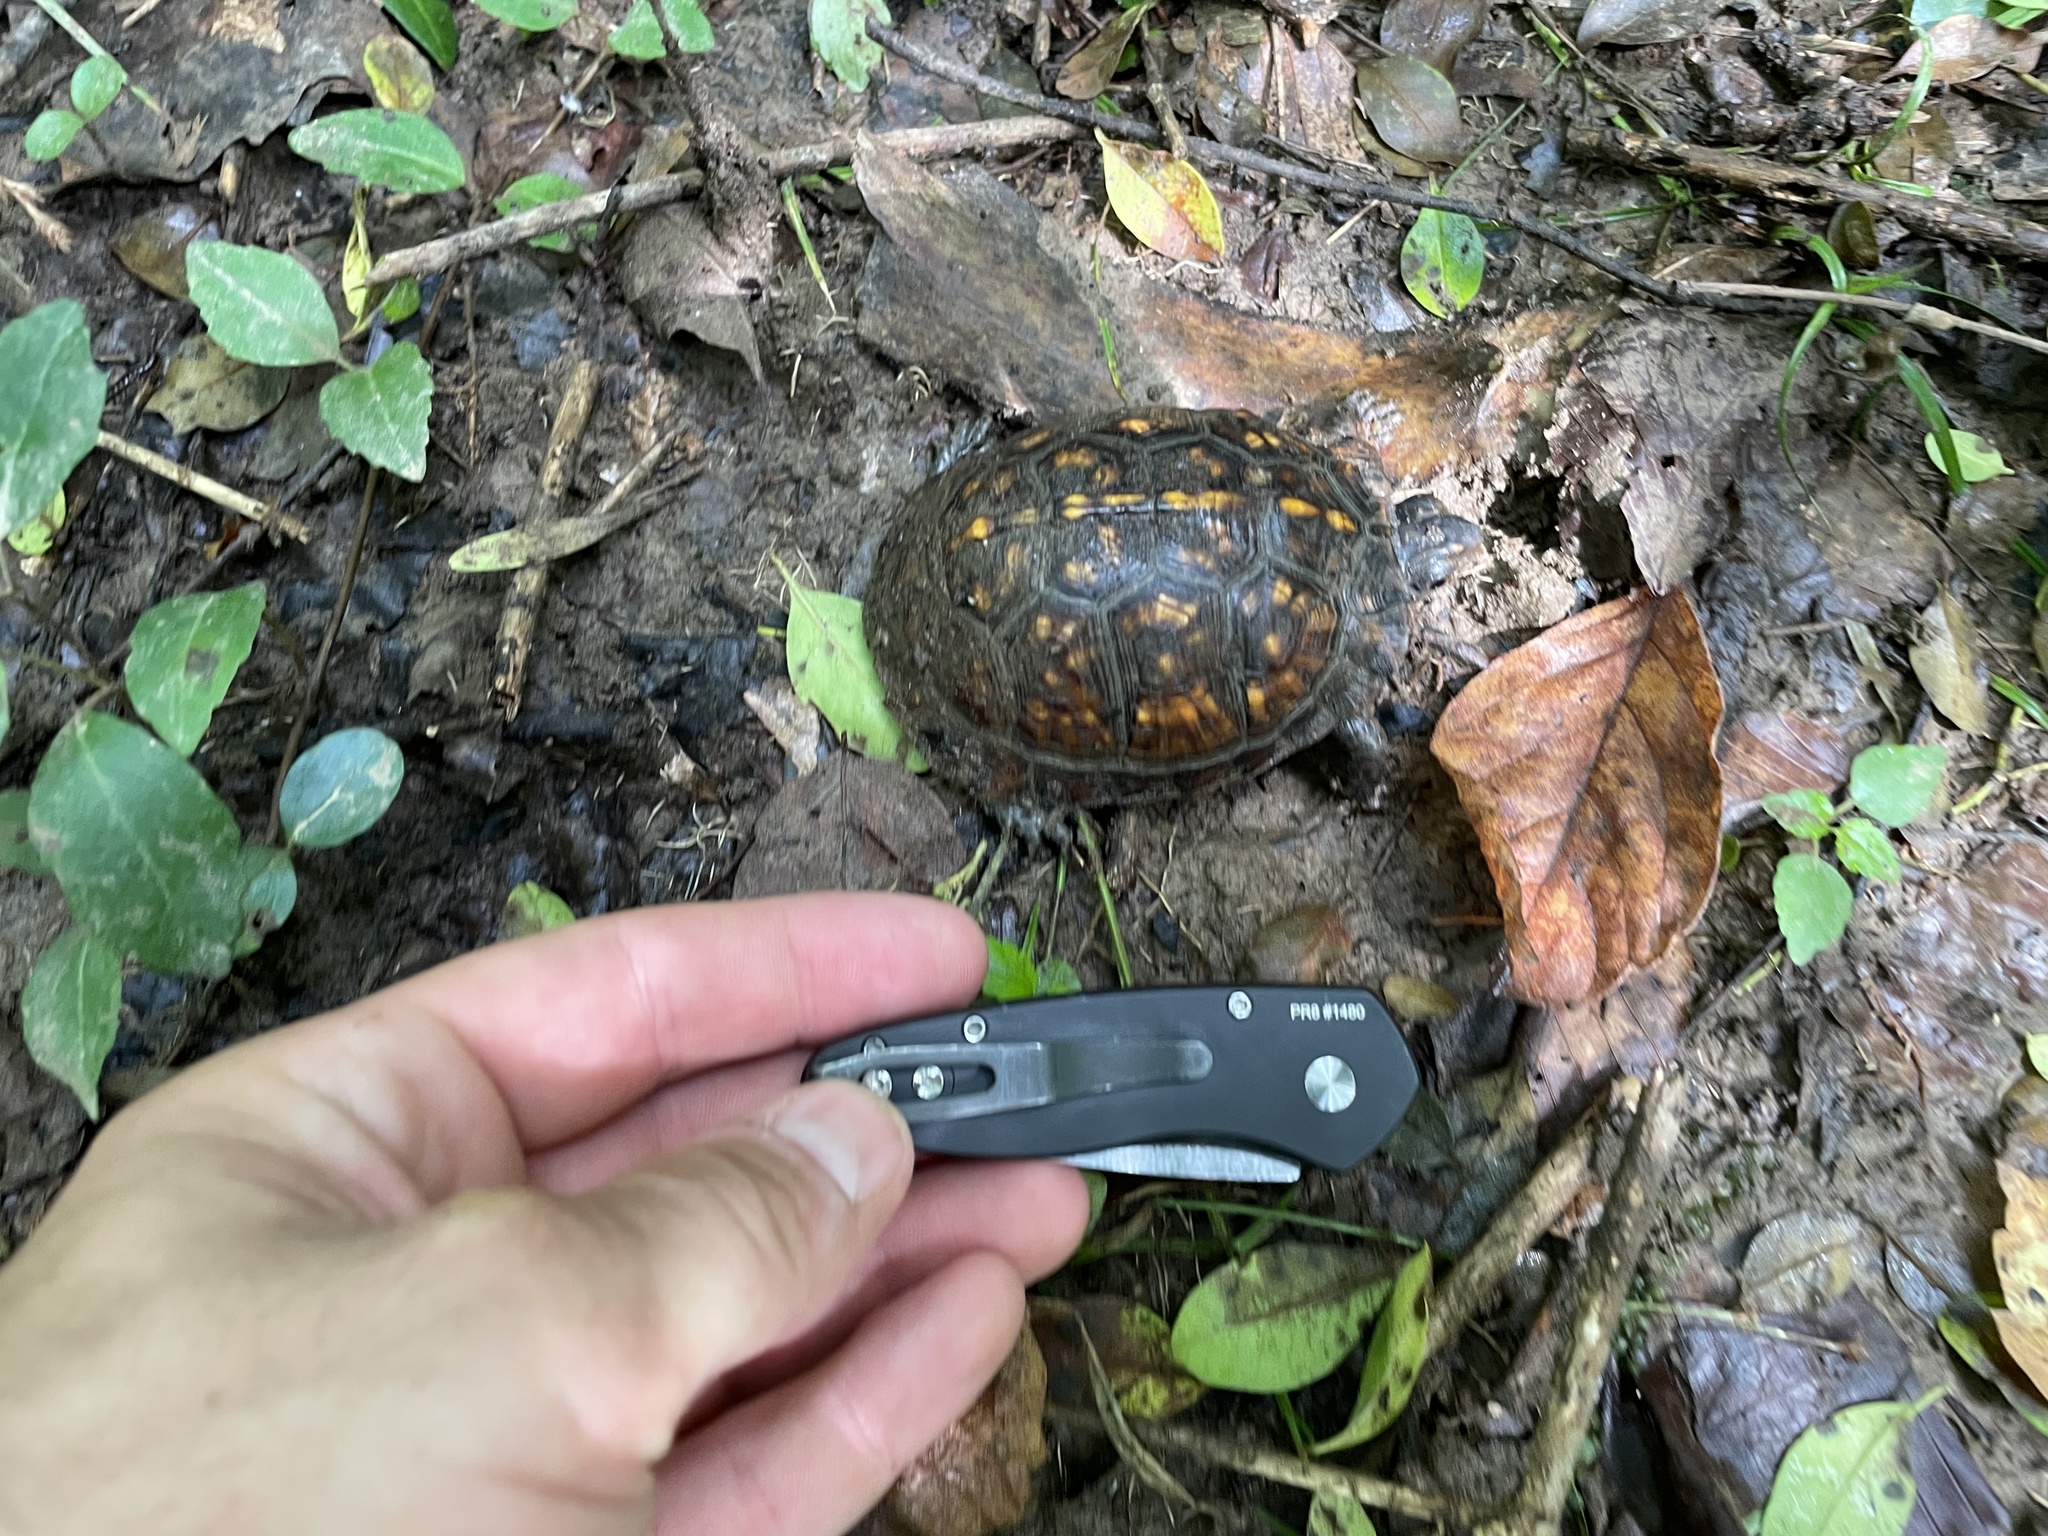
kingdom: Animalia
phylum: Chordata
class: Testudines
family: Emydidae
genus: Terrapene
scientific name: Terrapene carolina
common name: Common box turtle
